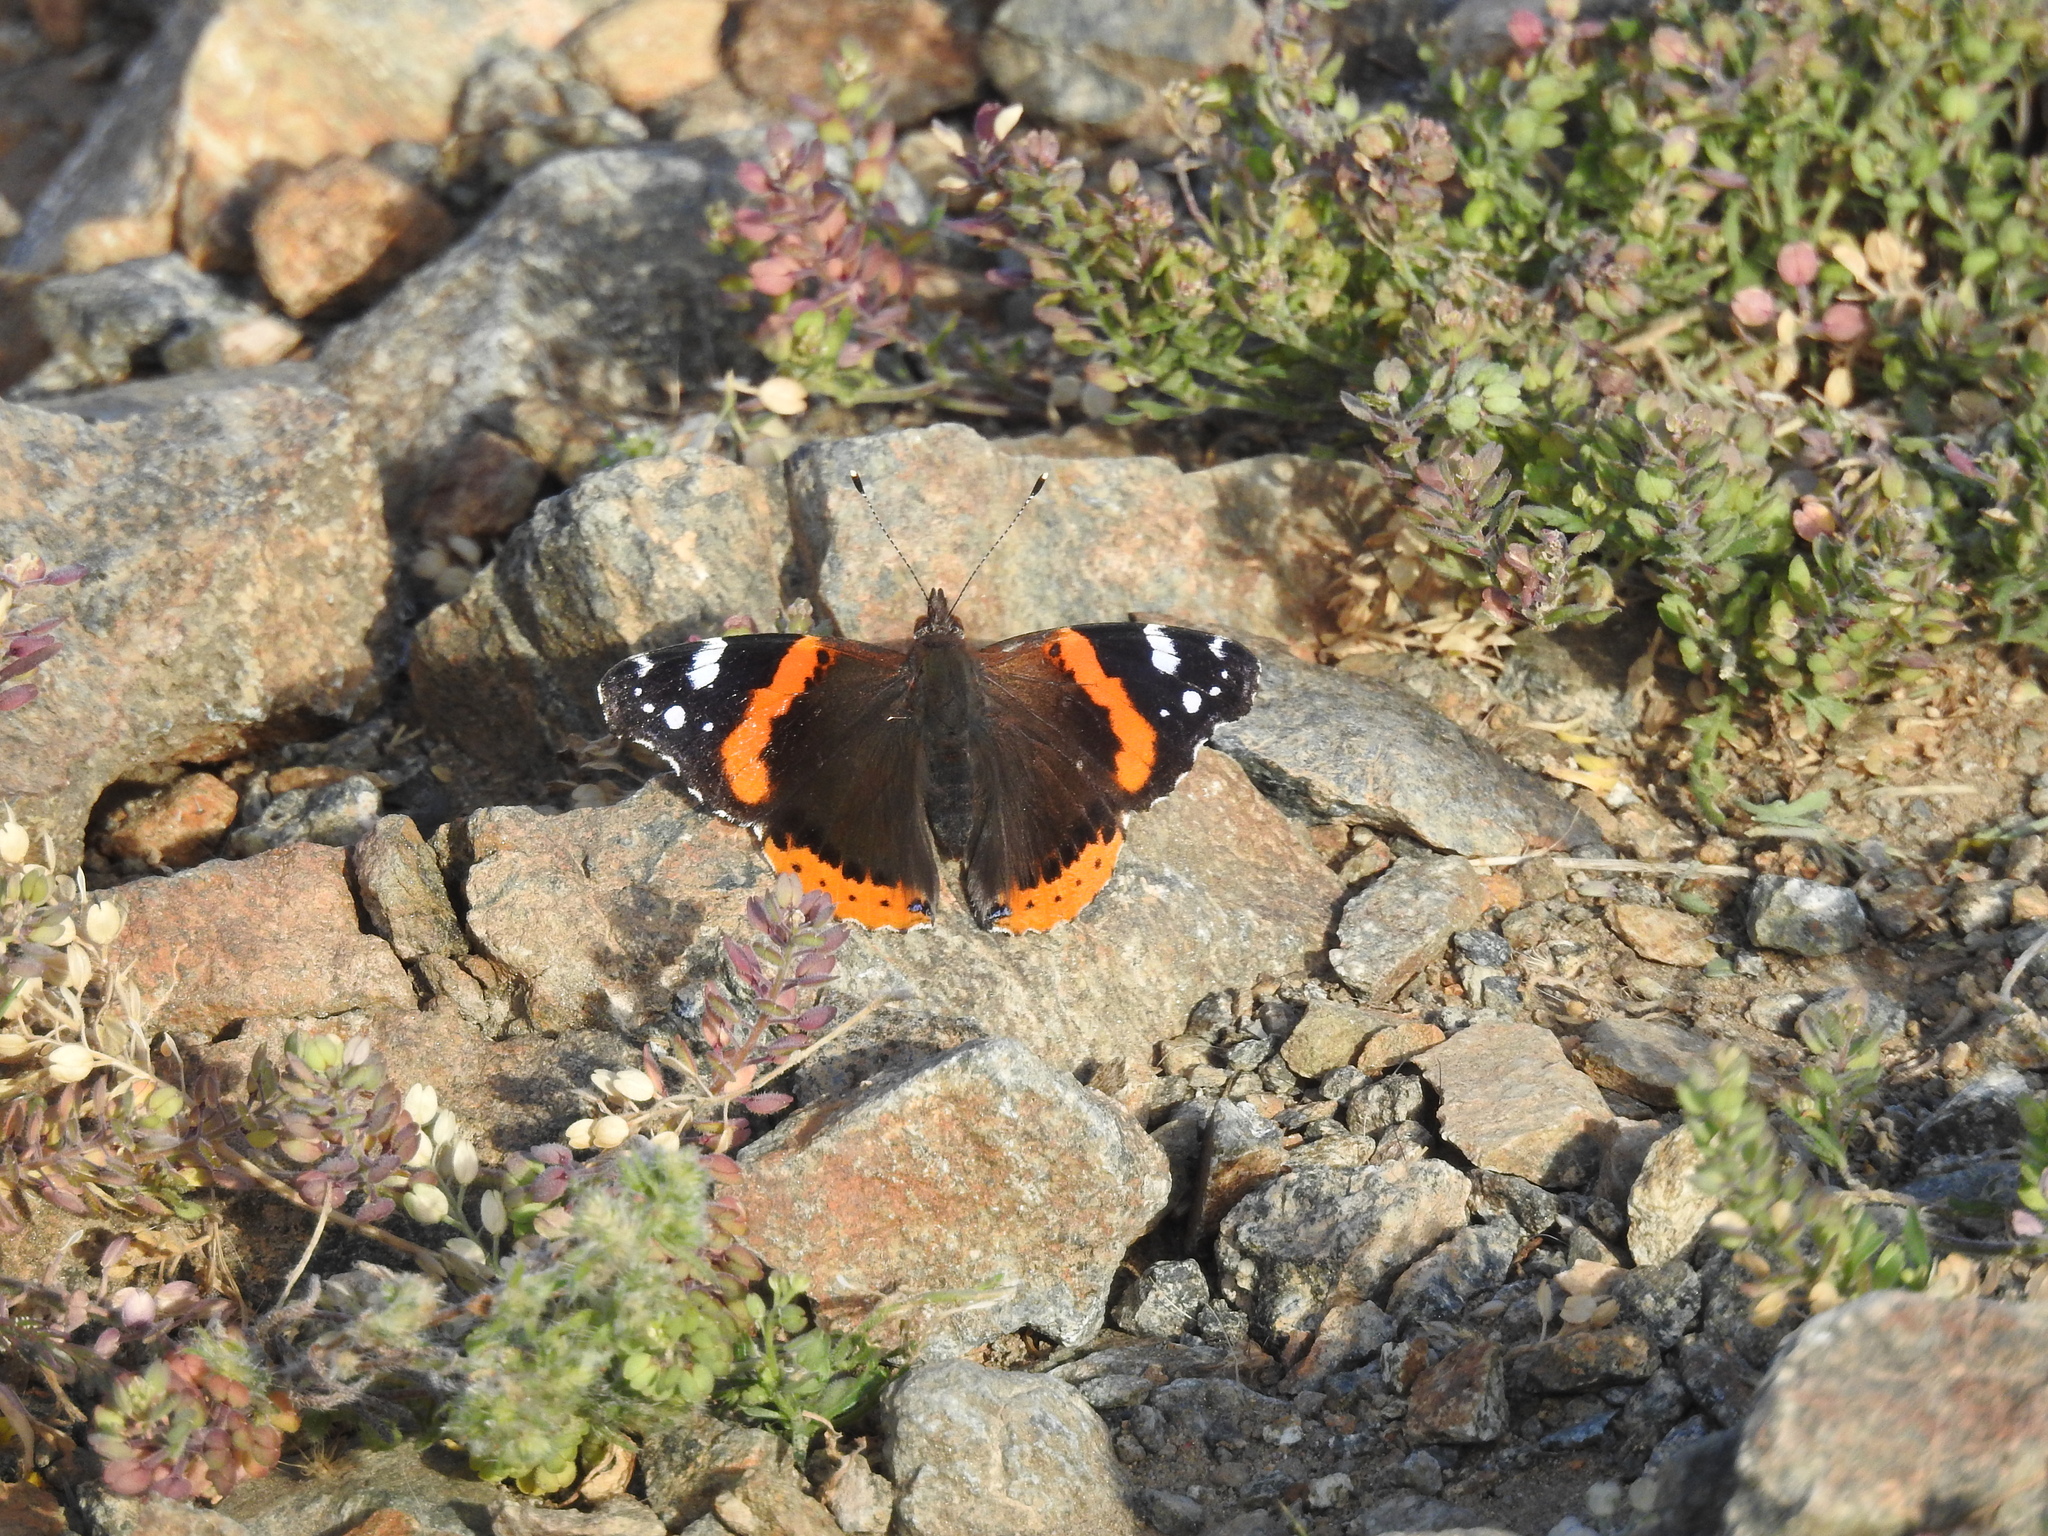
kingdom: Animalia
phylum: Arthropoda
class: Insecta
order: Lepidoptera
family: Nymphalidae
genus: Vanessa
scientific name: Vanessa atalanta
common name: Red admiral
